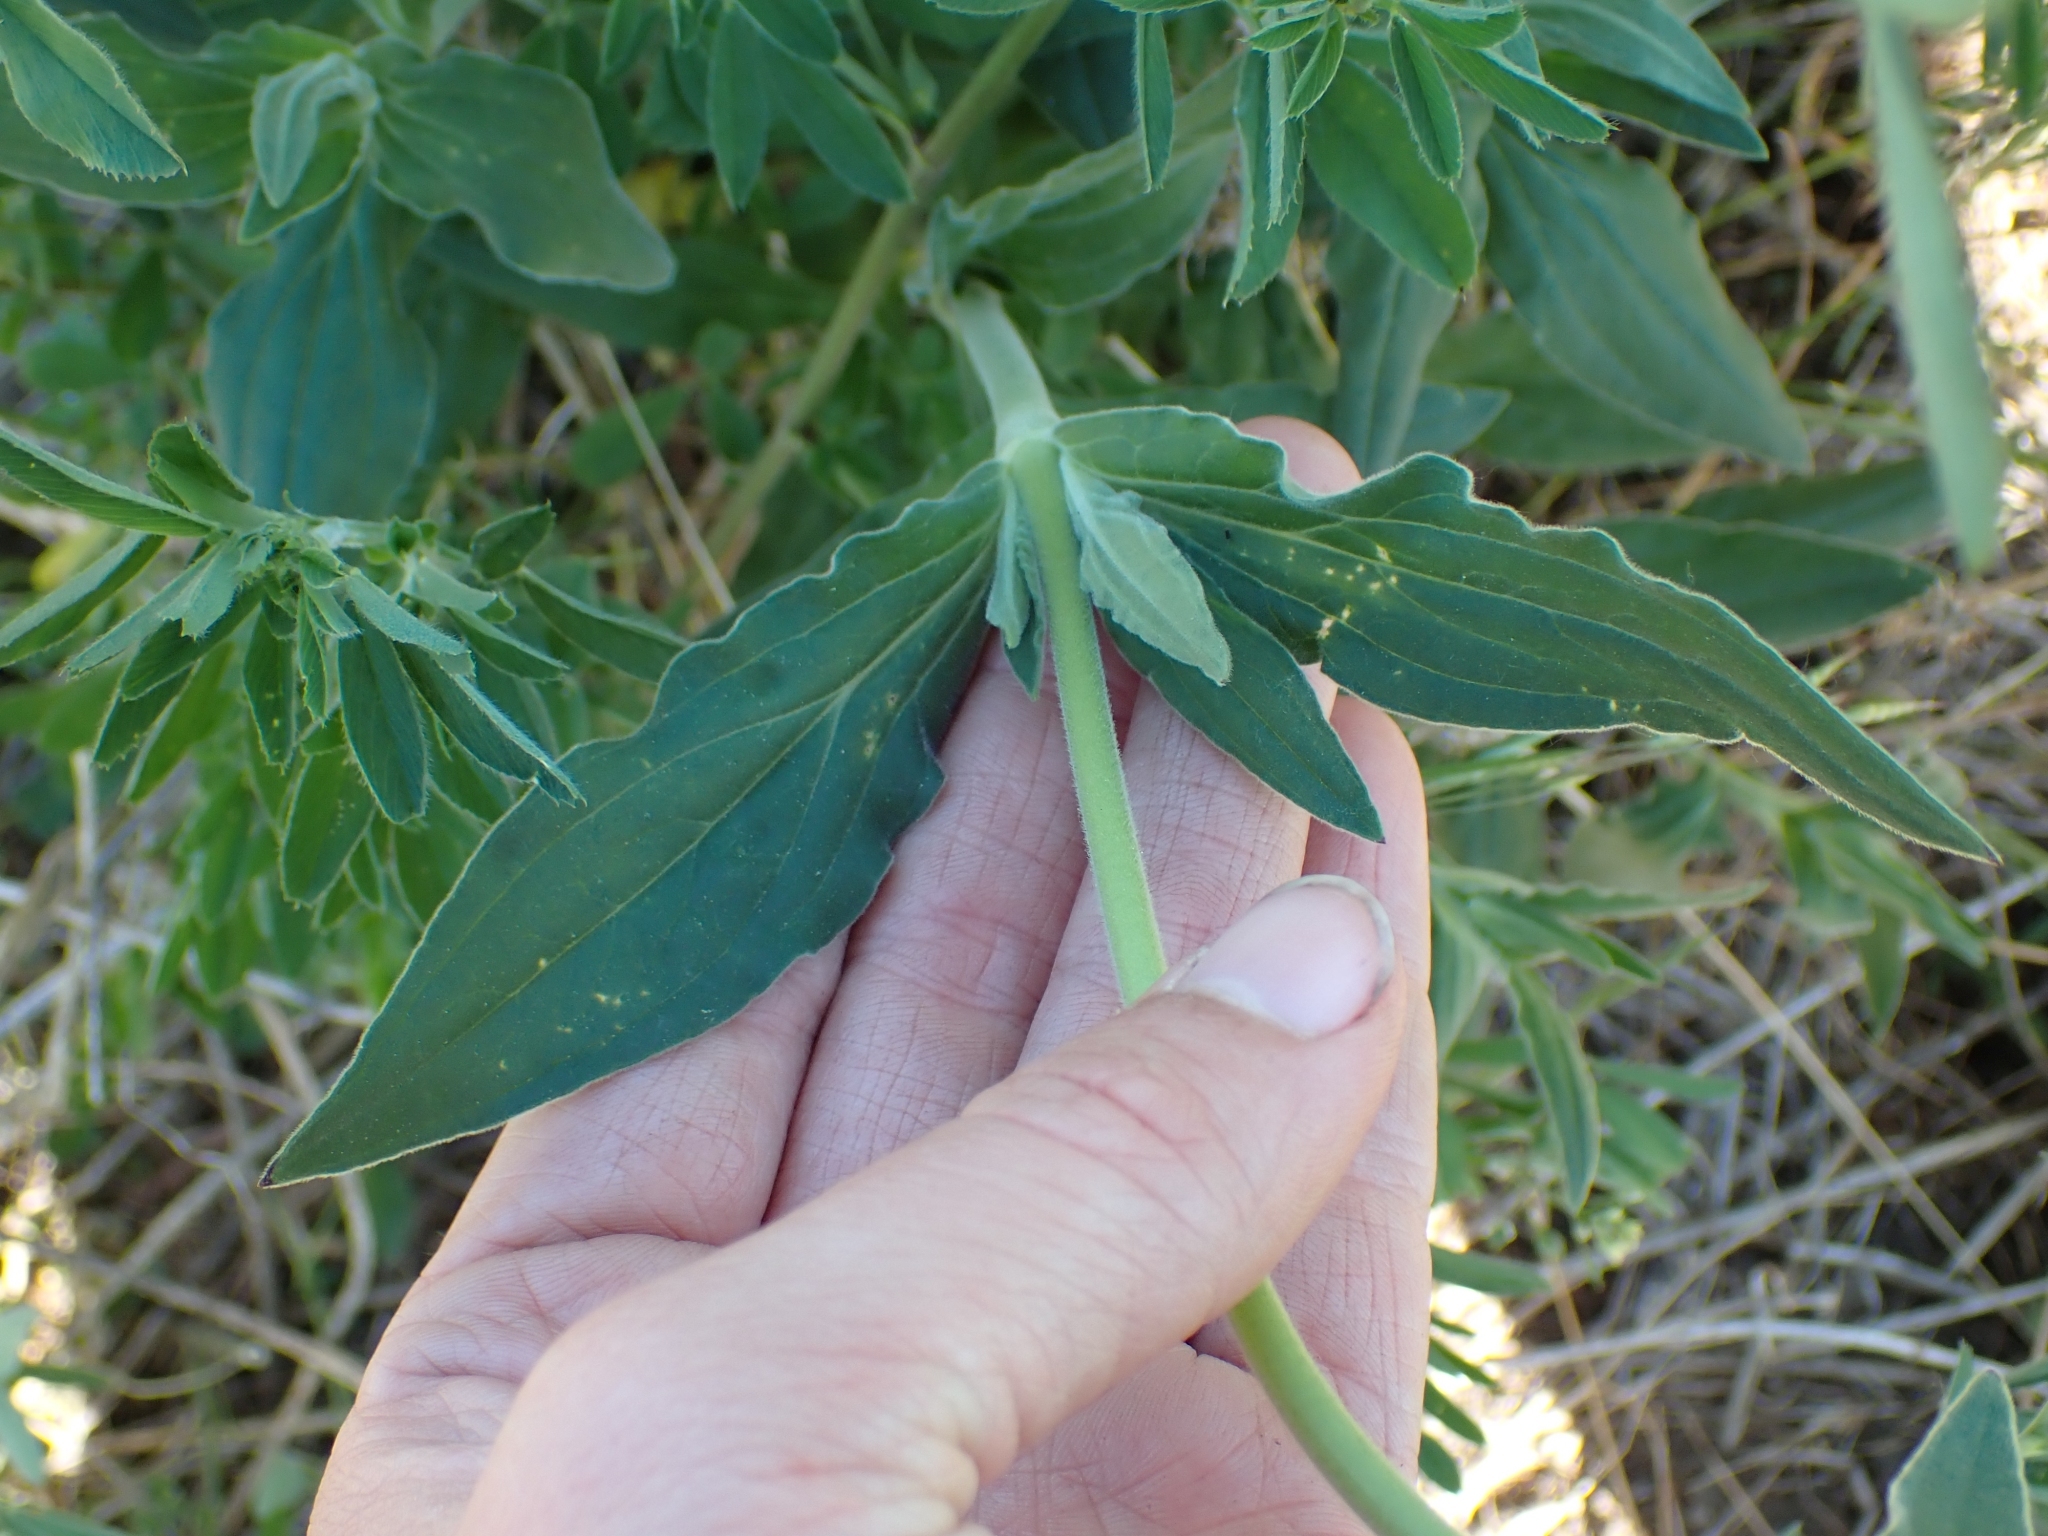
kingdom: Plantae
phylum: Tracheophyta
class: Magnoliopsida
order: Caryophyllales
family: Caryophyllaceae
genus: Silene
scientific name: Silene latifolia
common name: White campion
